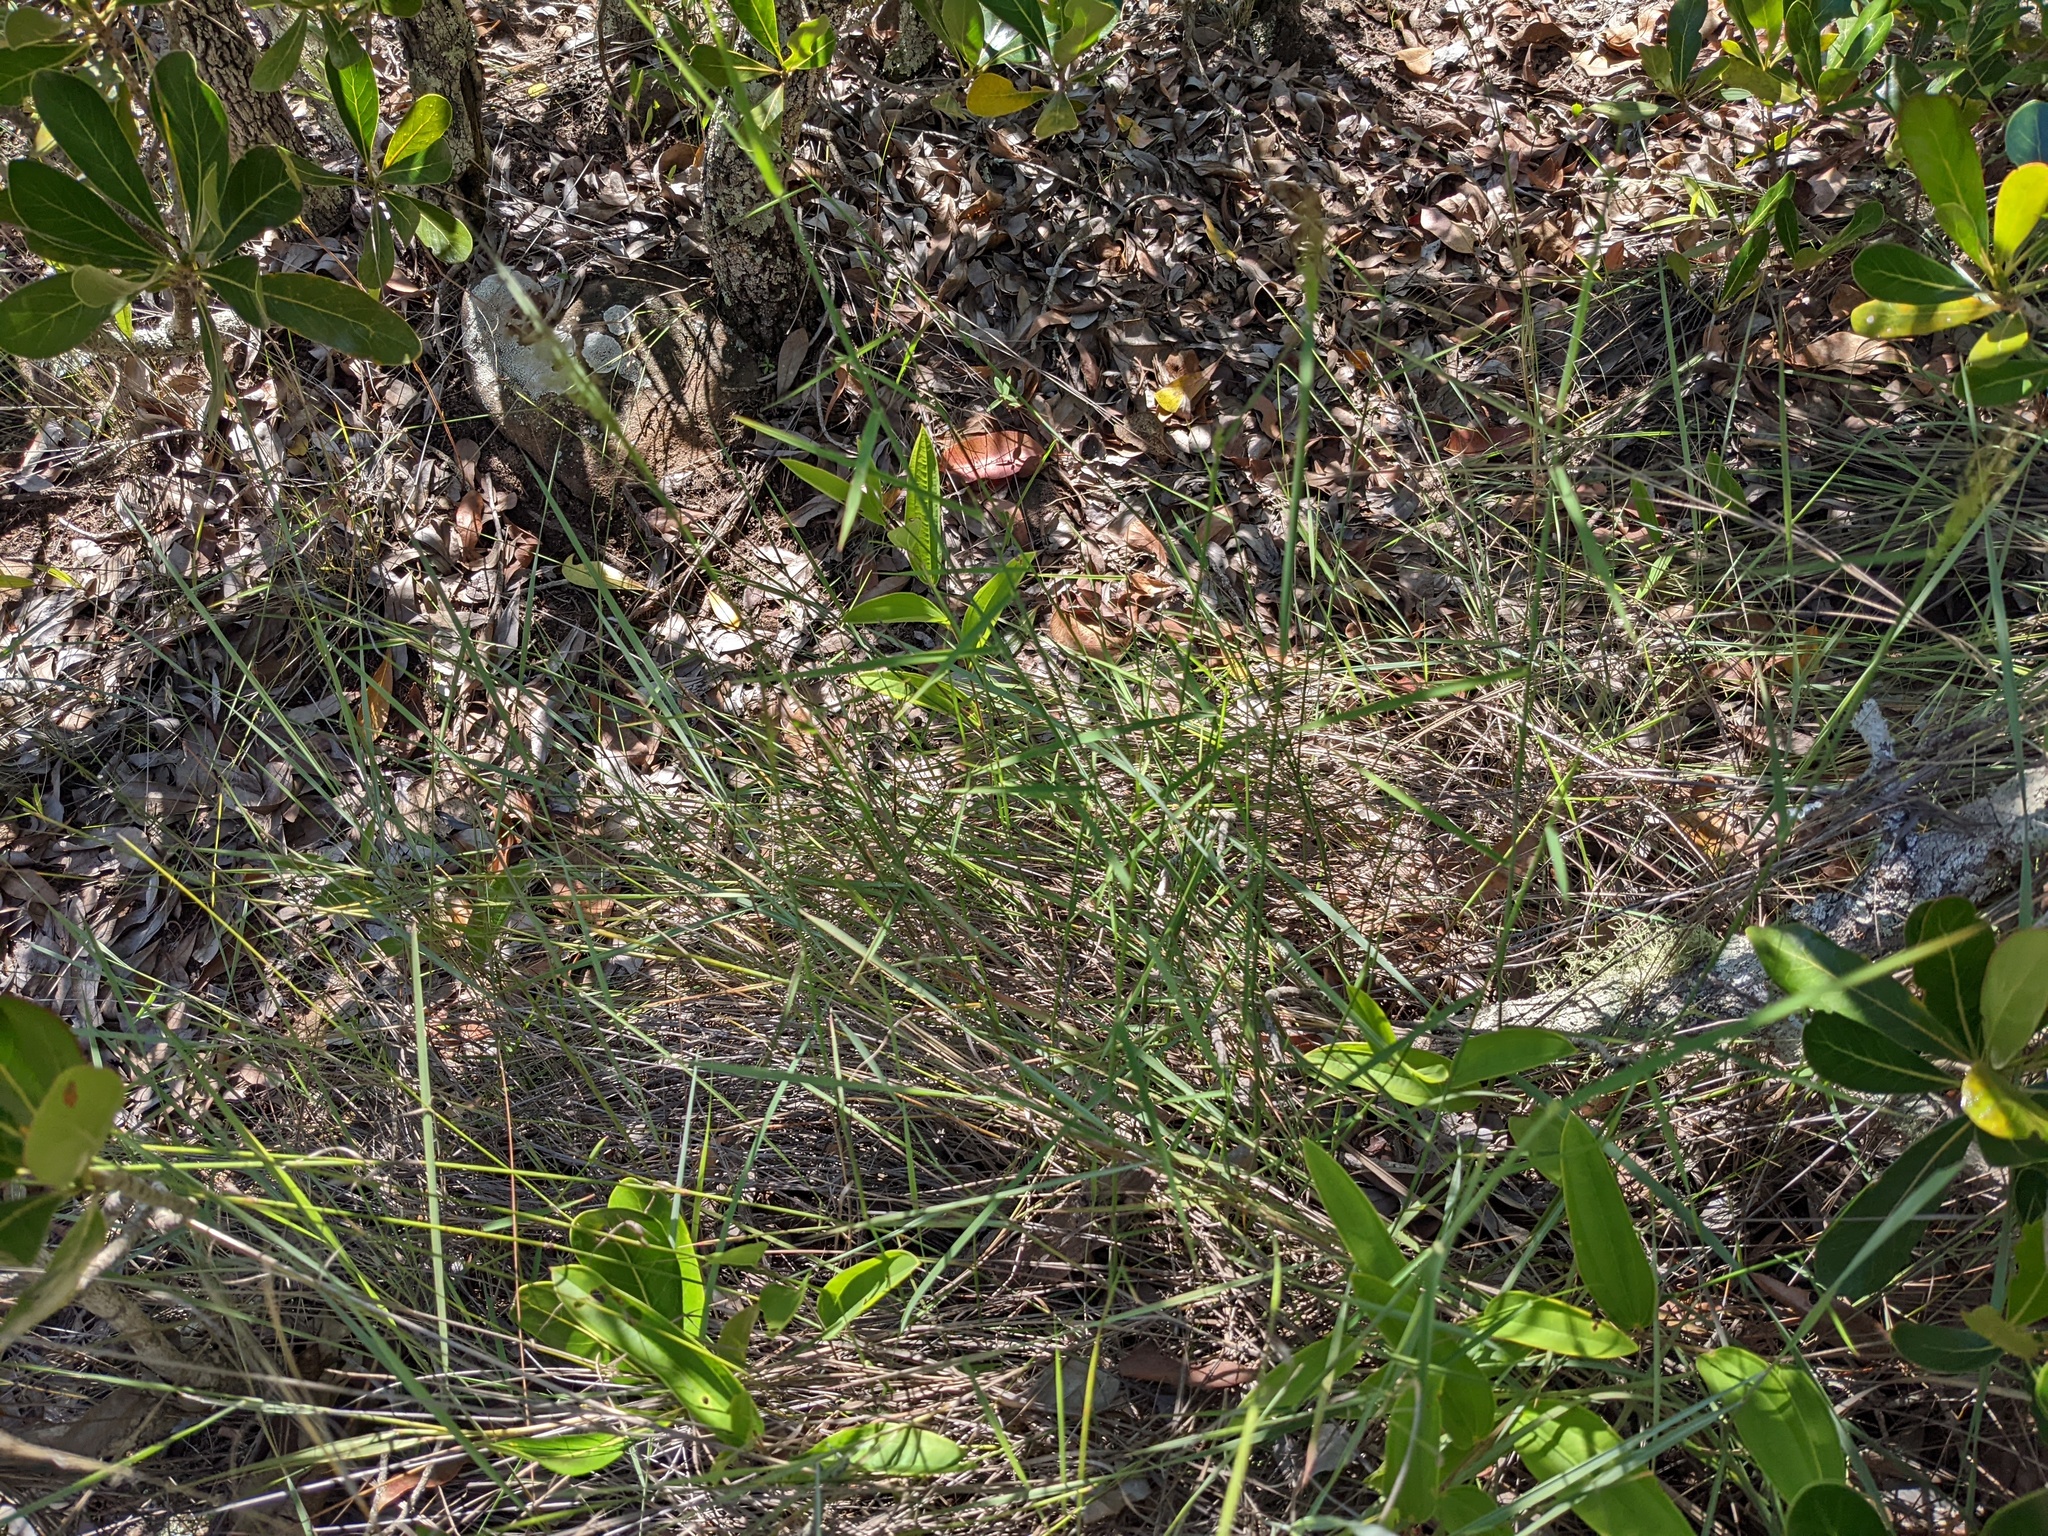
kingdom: Plantae
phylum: Tracheophyta
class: Liliopsida
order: Poales
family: Poaceae
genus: Panicum
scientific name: Panicum ibitense
